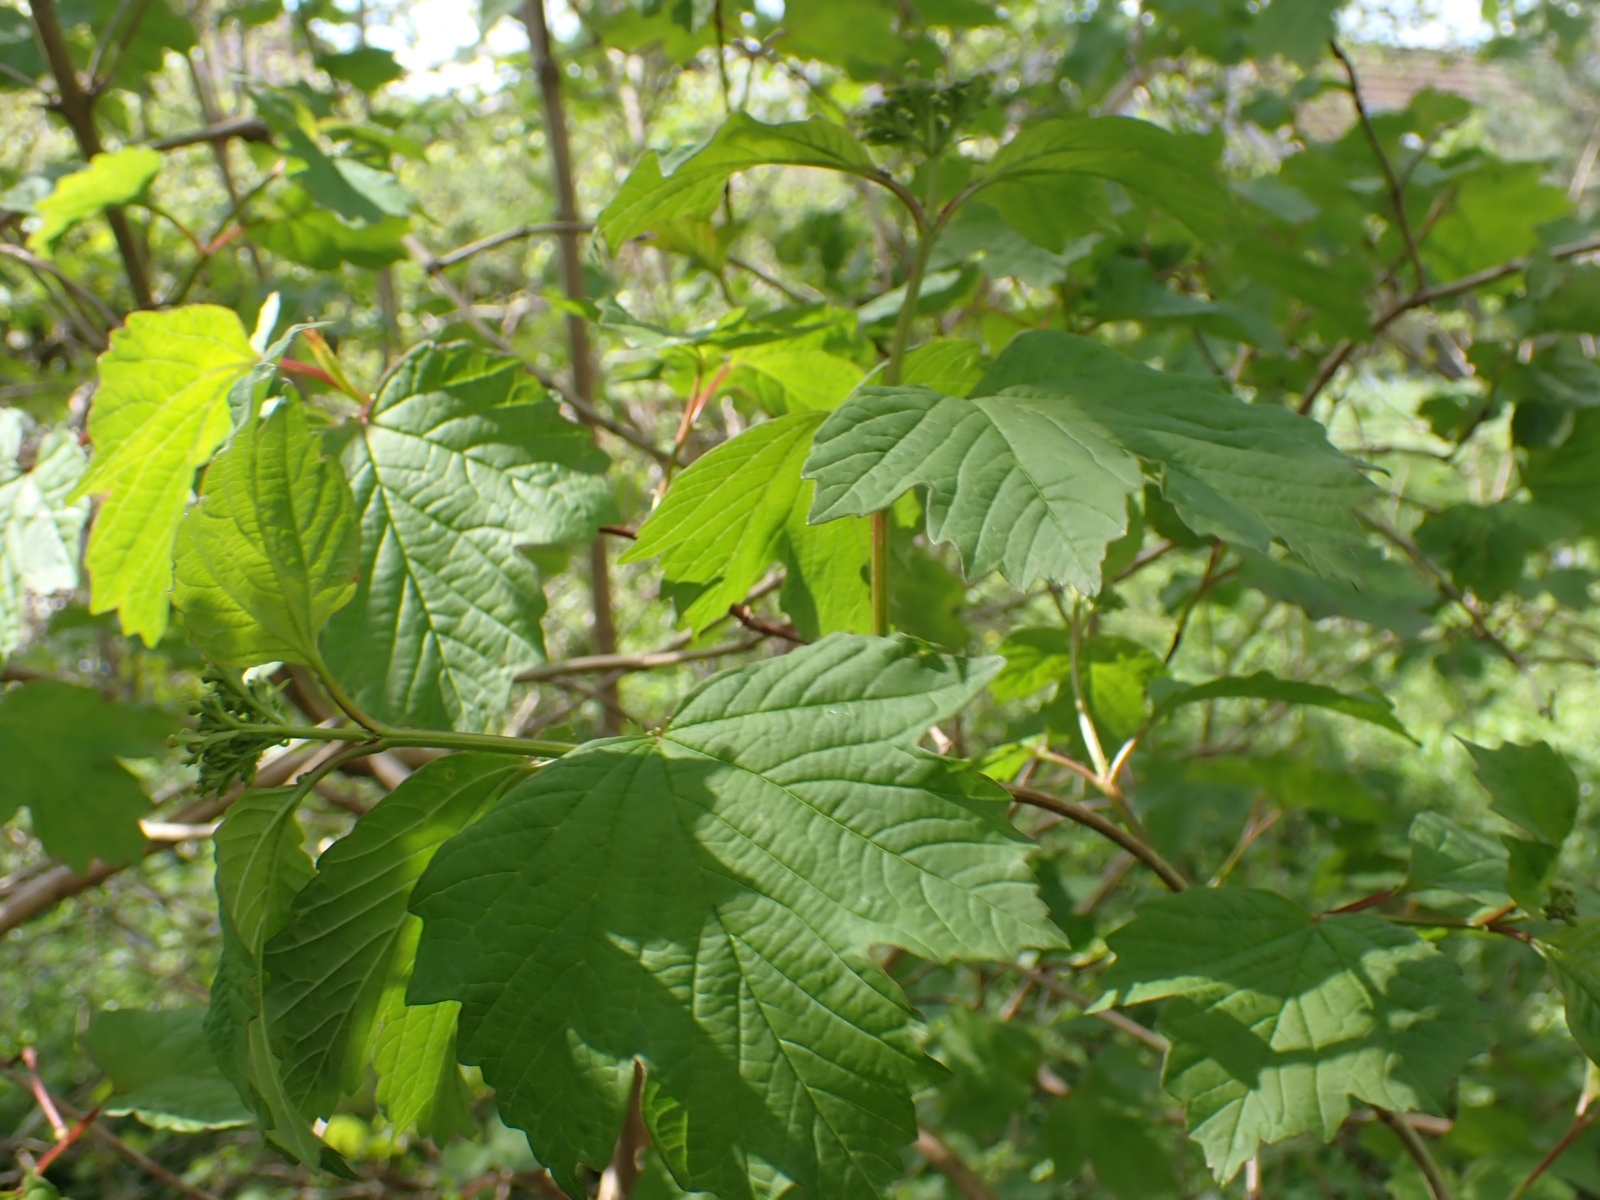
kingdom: Plantae
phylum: Tracheophyta
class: Magnoliopsida
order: Dipsacales
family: Viburnaceae
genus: Viburnum
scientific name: Viburnum opulus
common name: Guelder-rose
